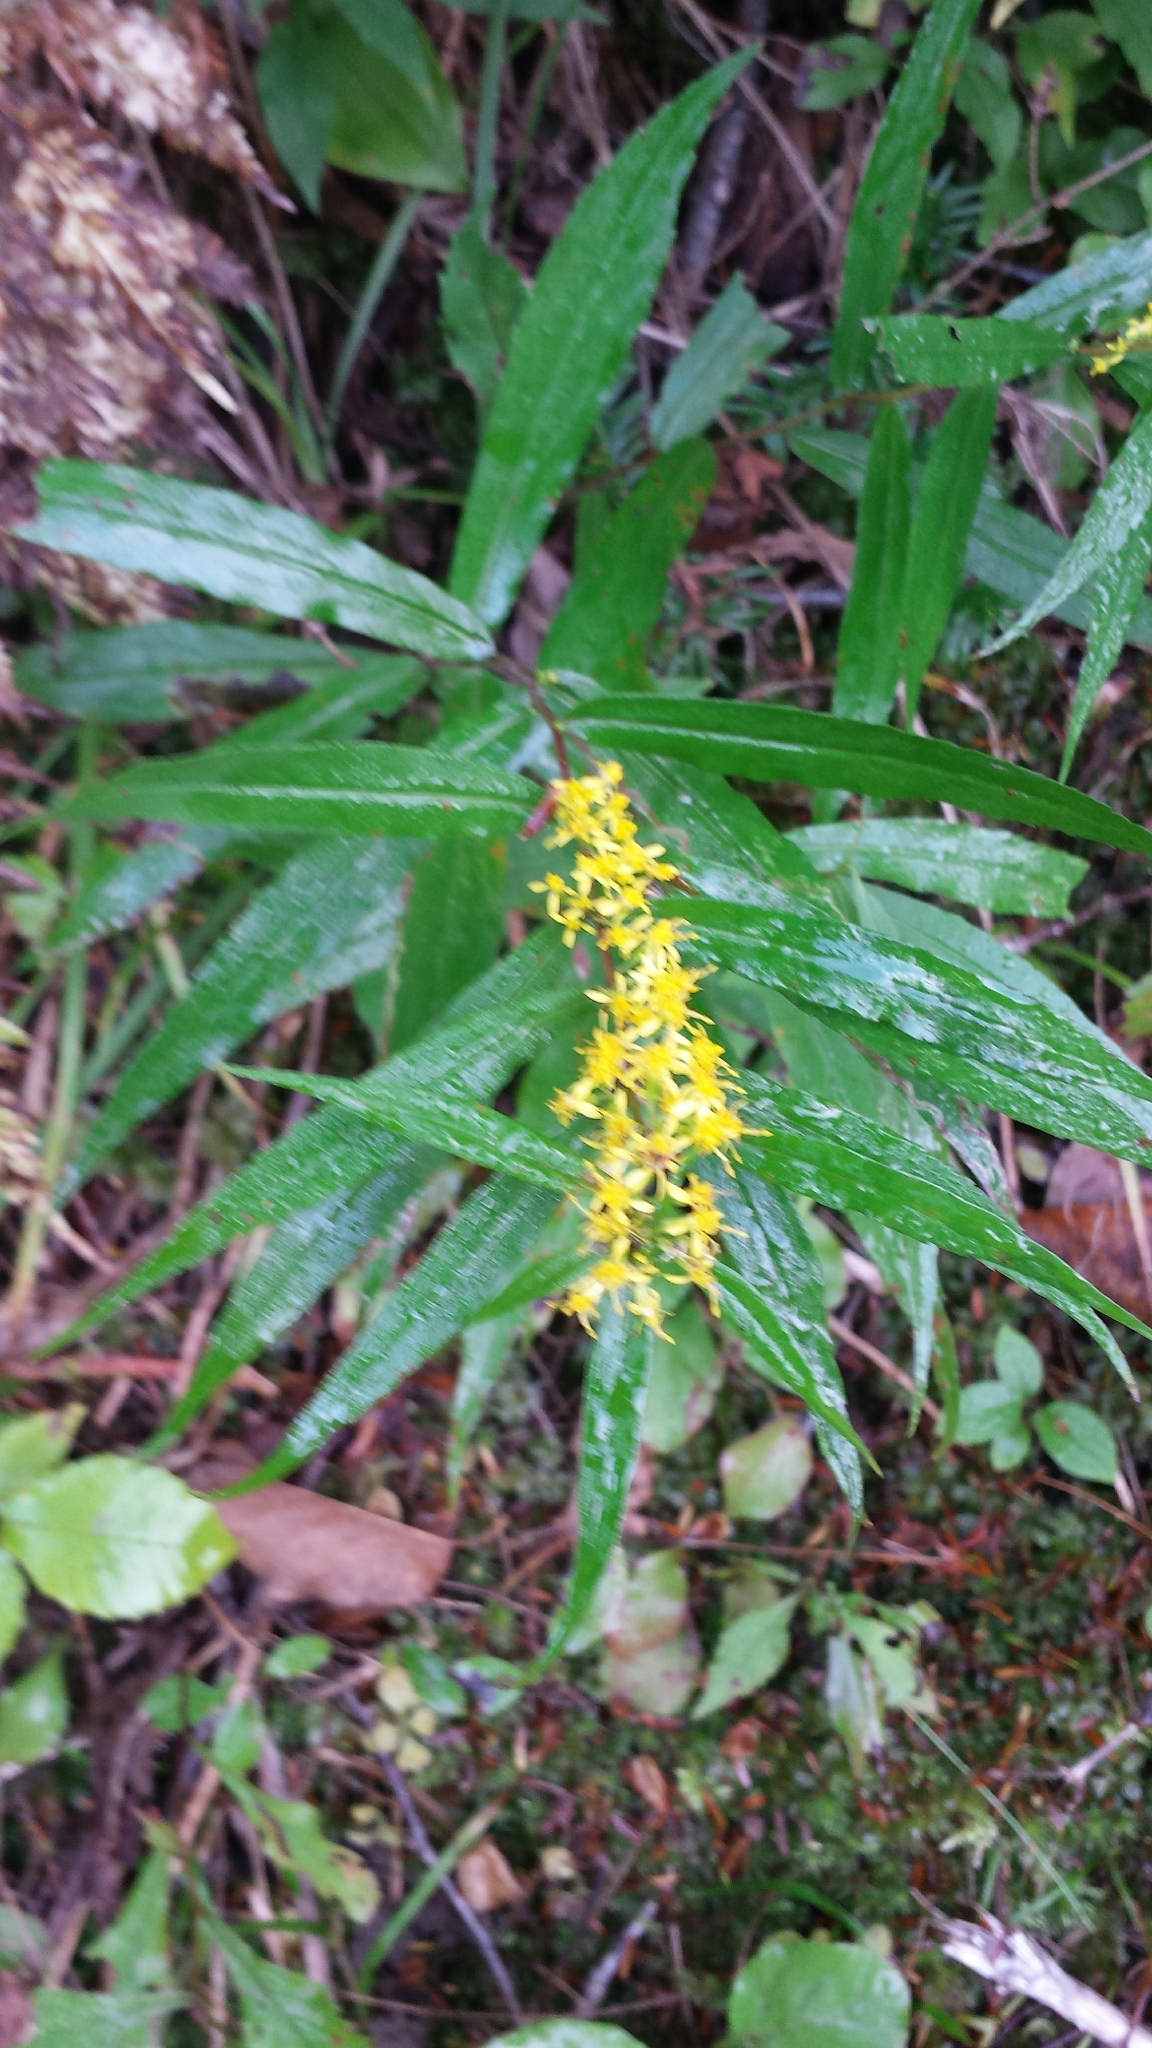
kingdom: Plantae
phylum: Tracheophyta
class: Magnoliopsida
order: Asterales
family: Asteraceae
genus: Solidago
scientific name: Solidago caesia
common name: Woodland goldenrod
